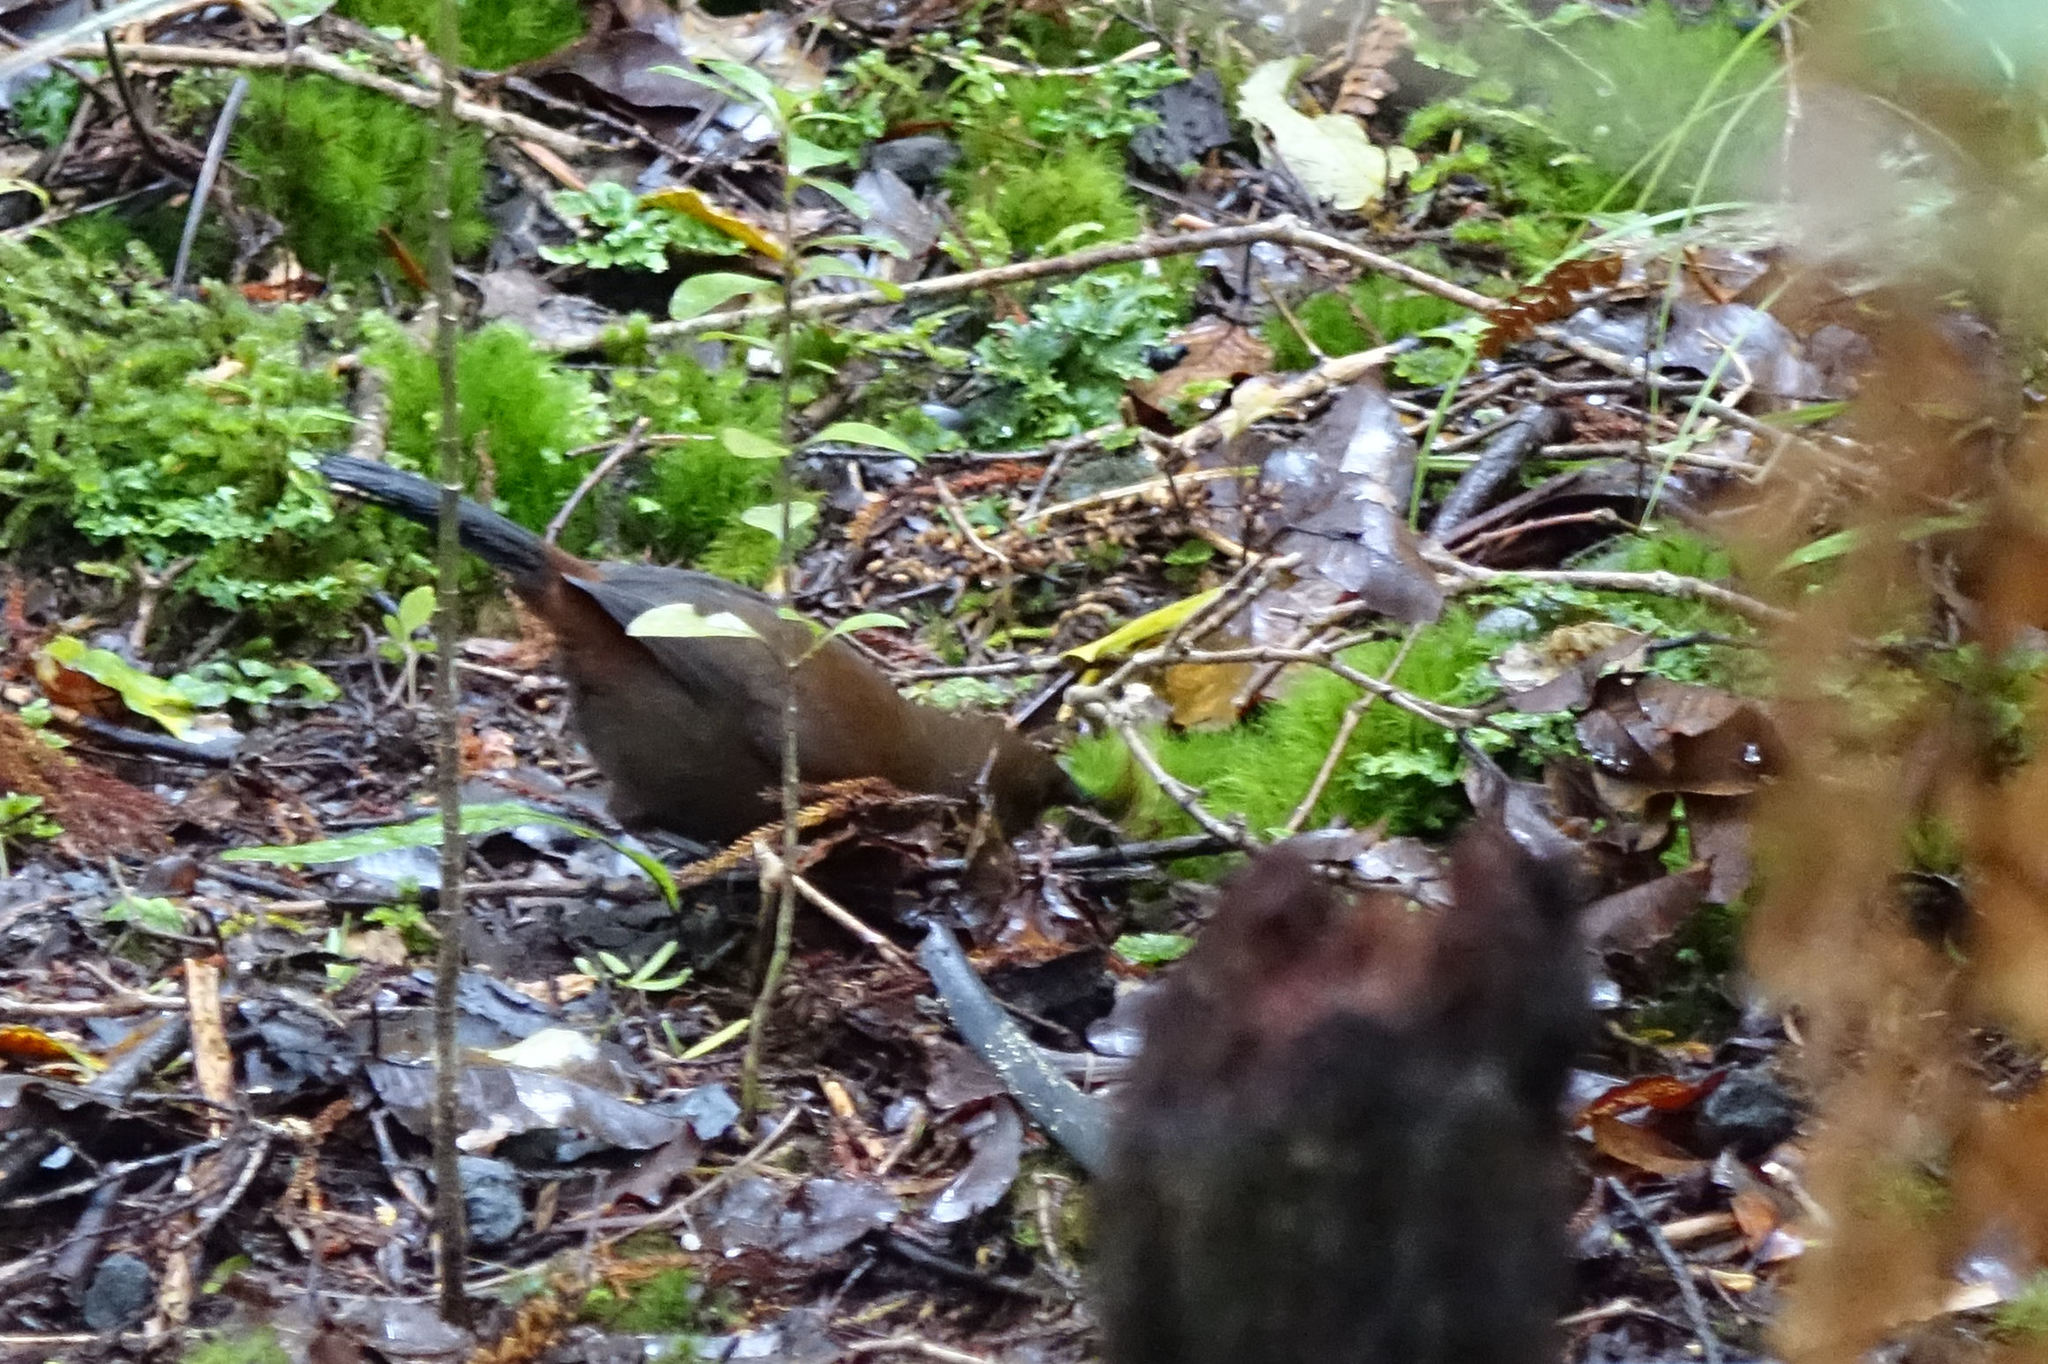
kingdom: Animalia
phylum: Chordata
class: Aves
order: Passeriformes
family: Callaeatidae
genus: Philesturnus
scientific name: Philesturnus carunculatus
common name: South island saddleback
